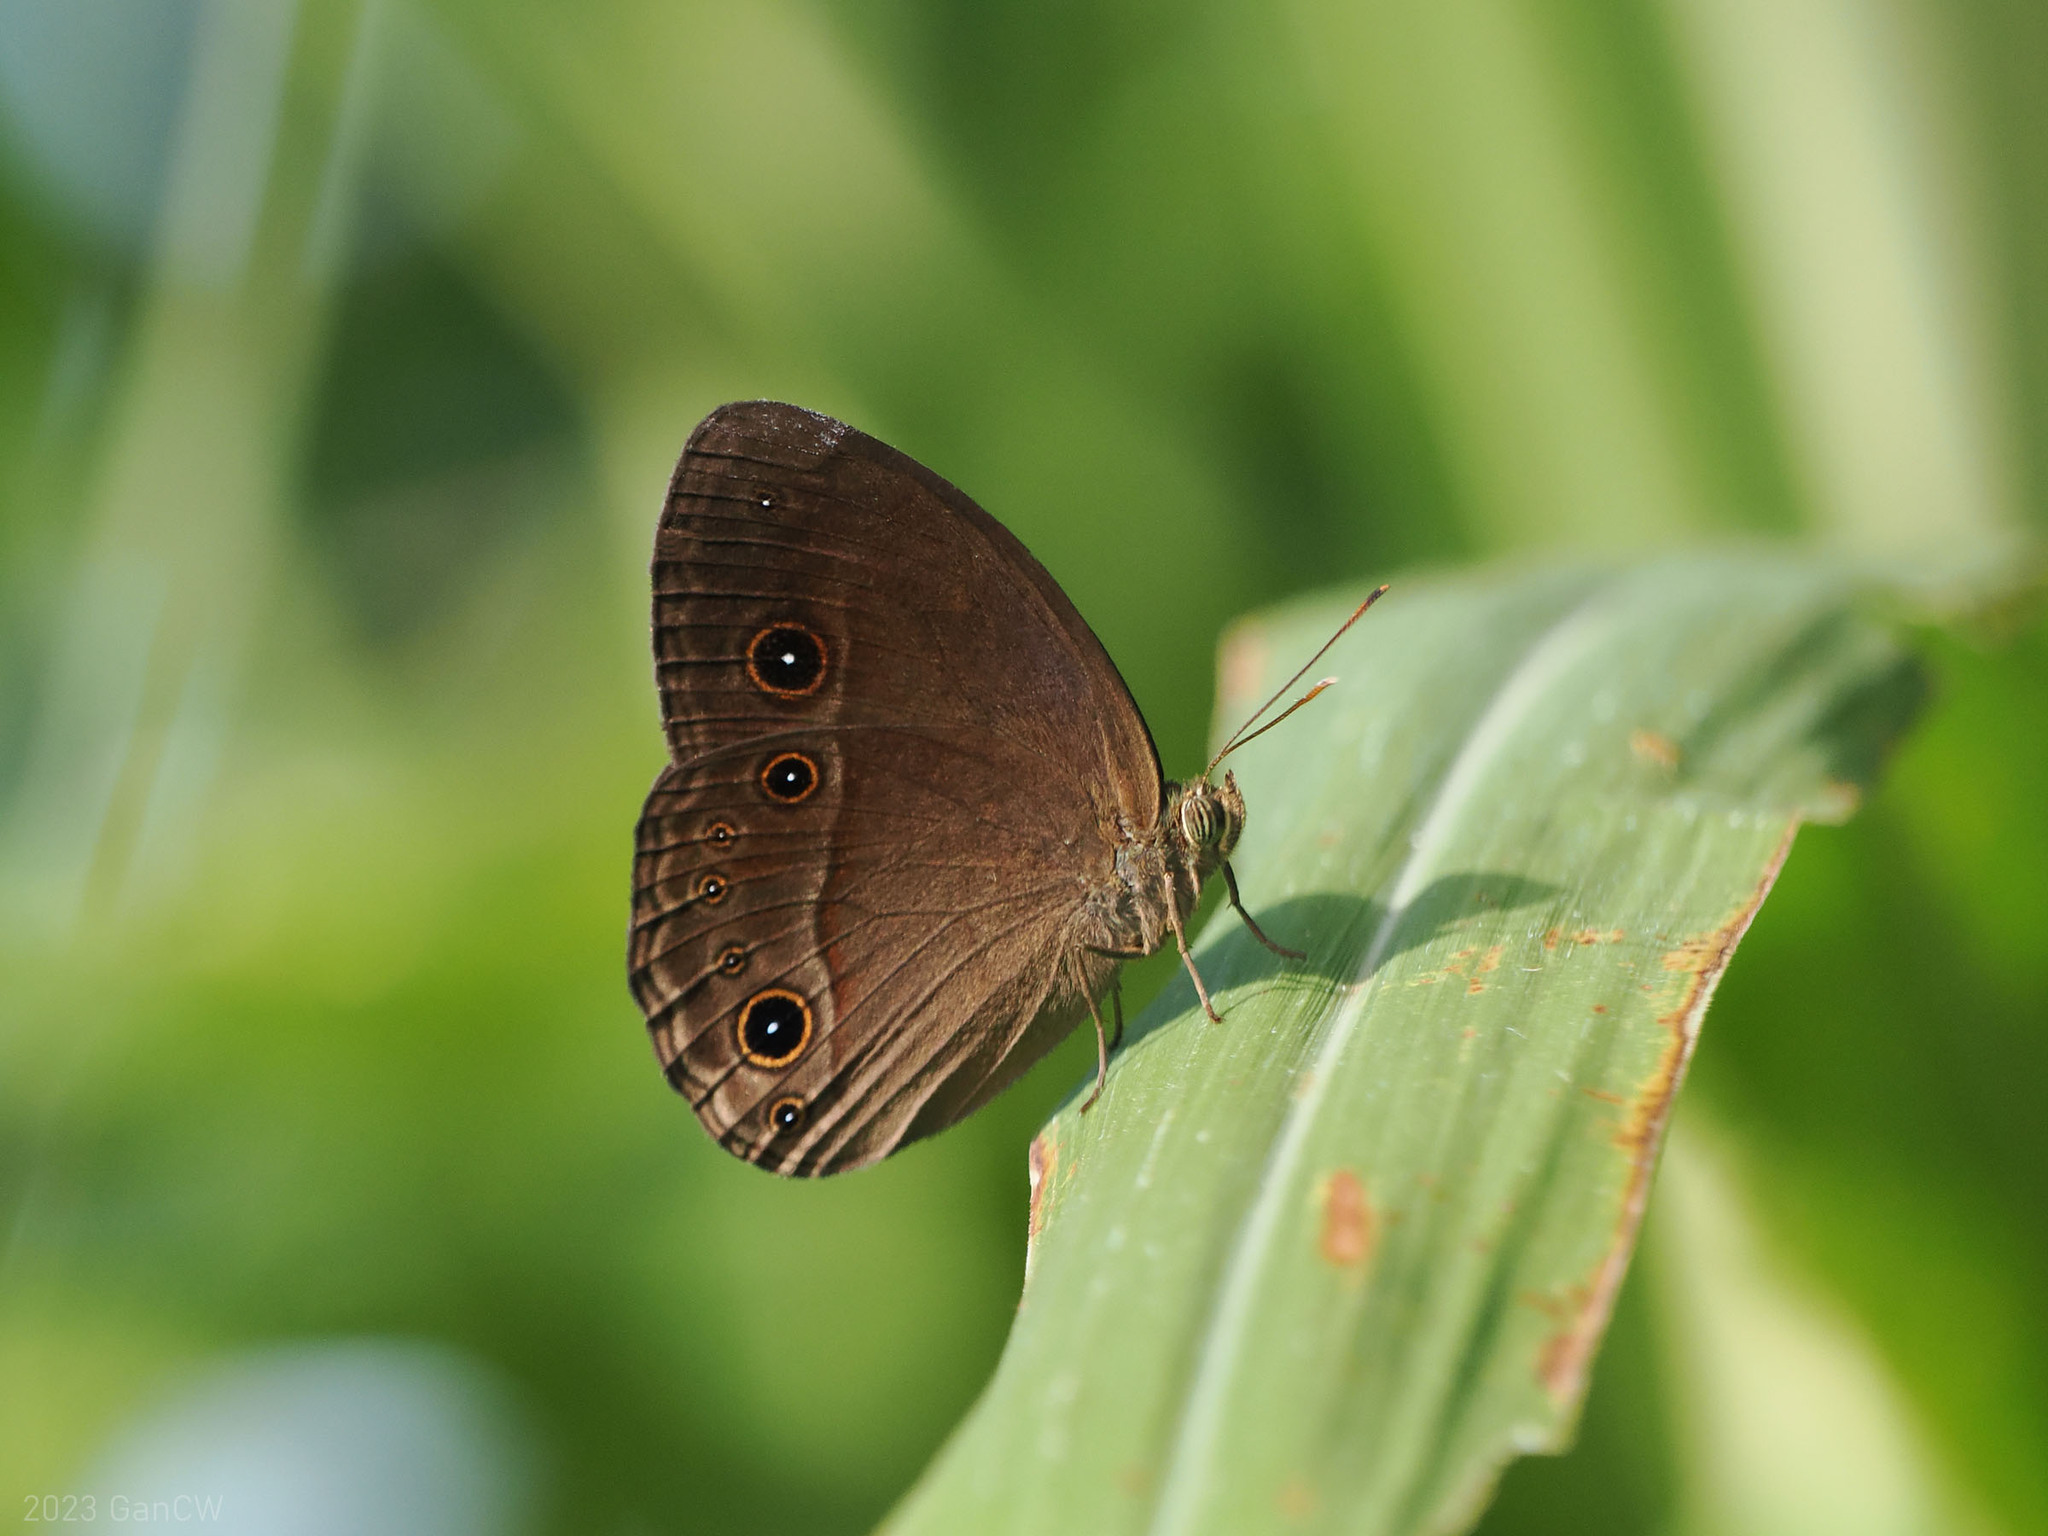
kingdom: Animalia
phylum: Arthropoda
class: Insecta
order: Lepidoptera
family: Nymphalidae
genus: Mycalesis
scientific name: Mycalesis tagala
